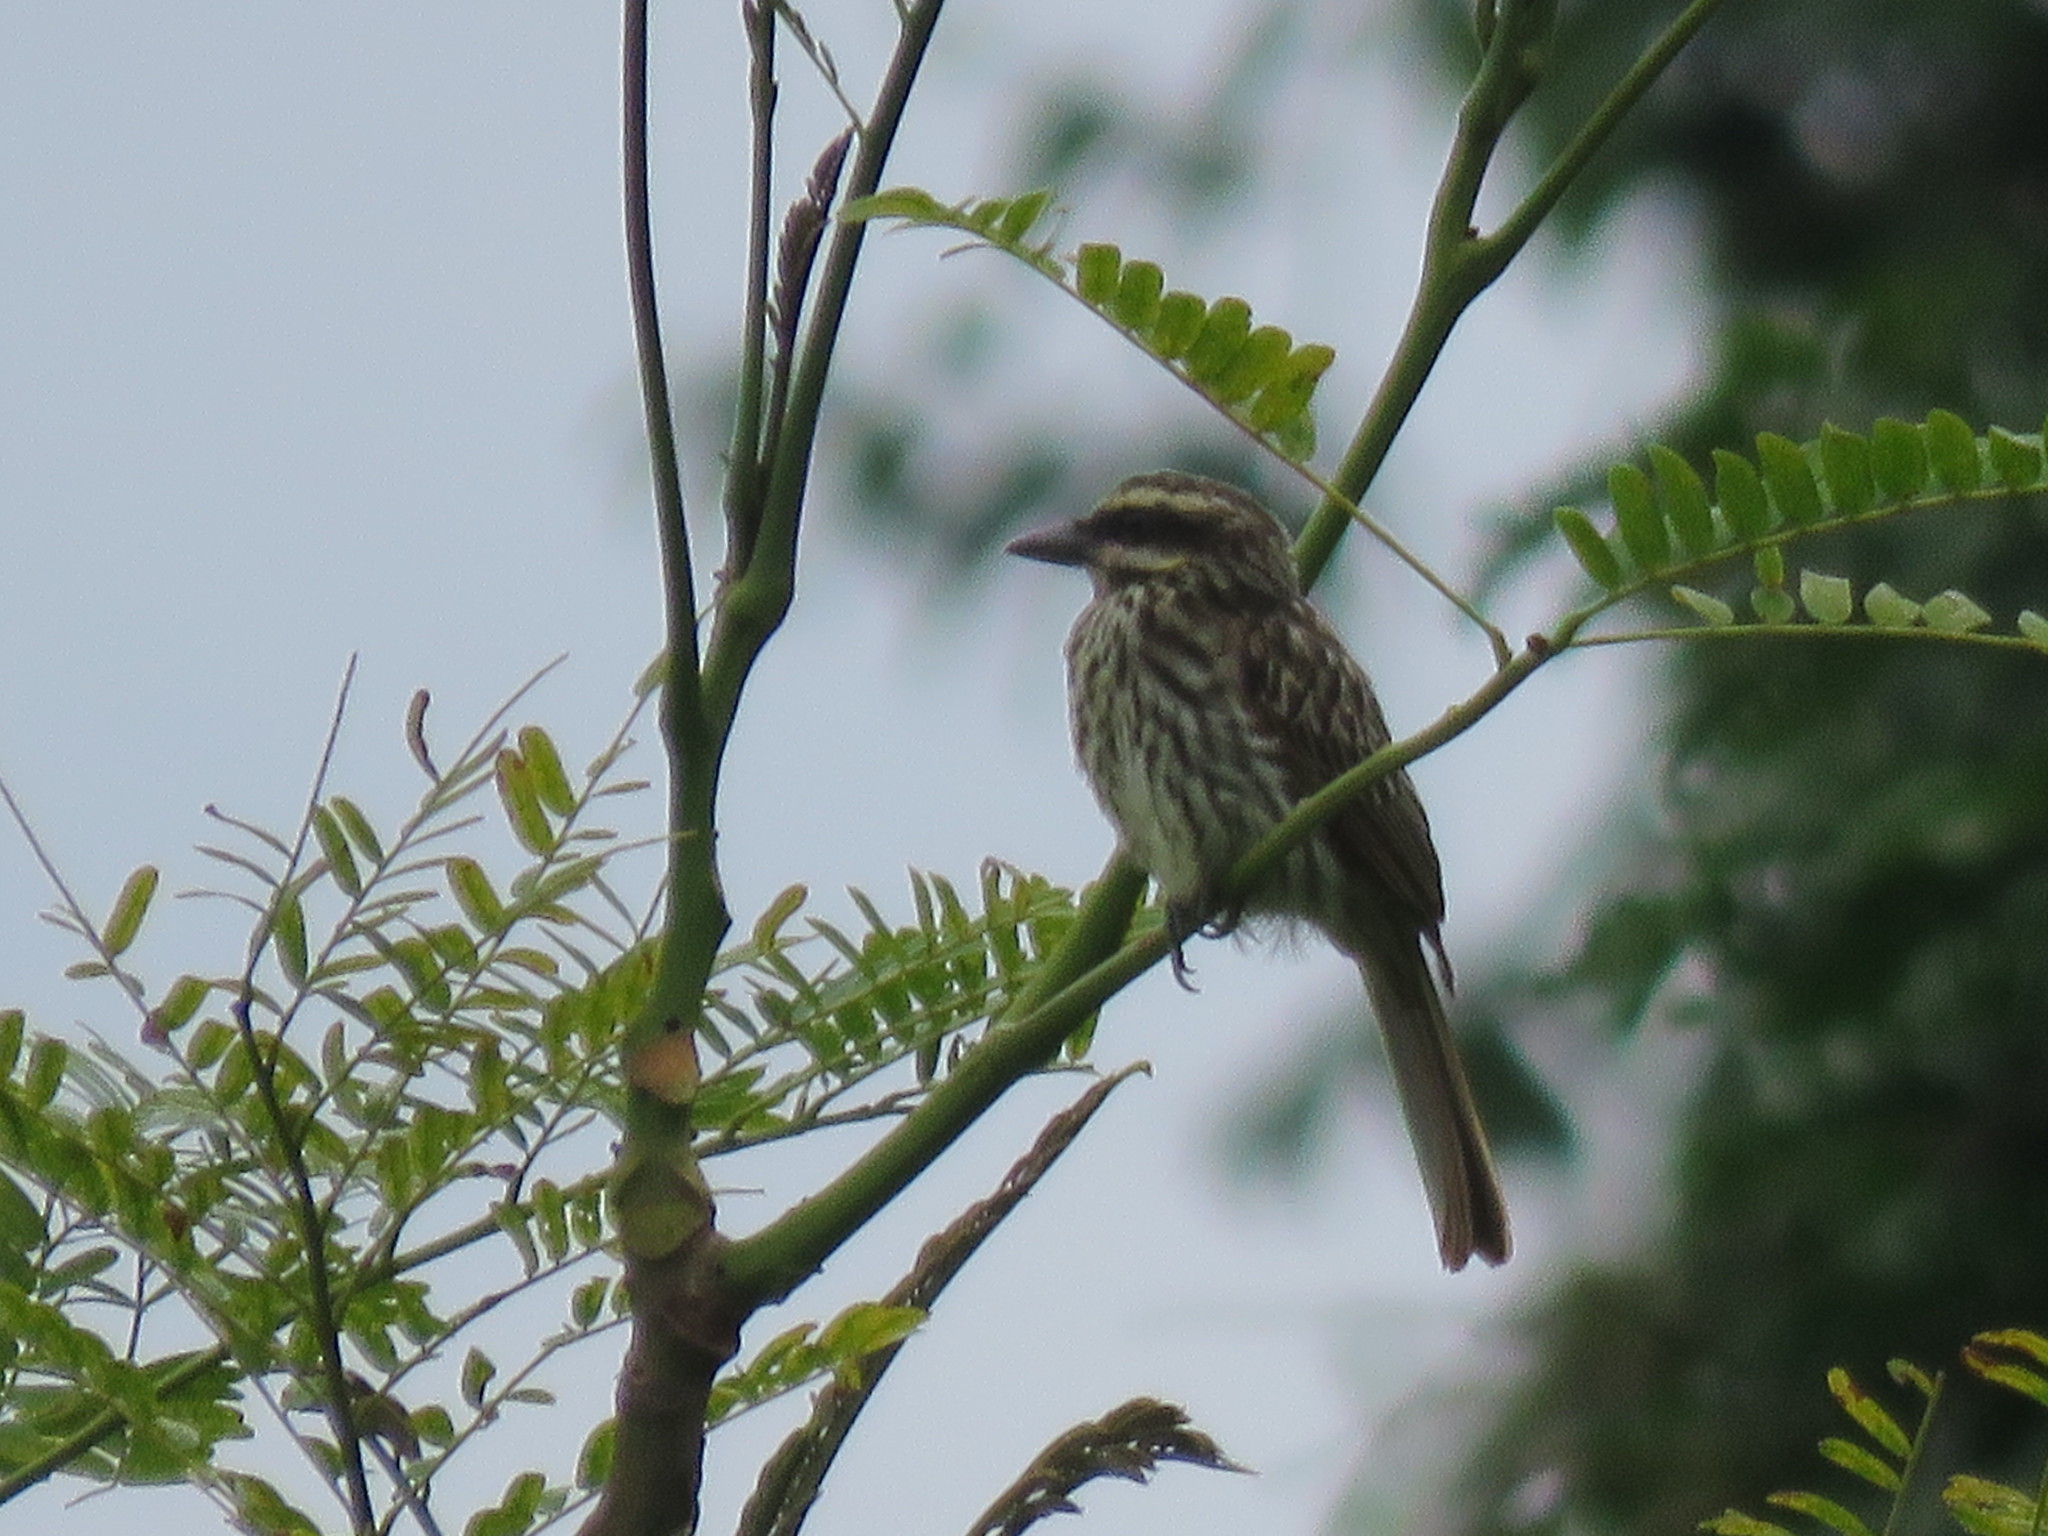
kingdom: Animalia
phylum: Chordata
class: Aves
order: Passeriformes
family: Tyrannidae
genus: Myiodynastes
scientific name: Myiodynastes maculatus
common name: Streaked flycatcher
